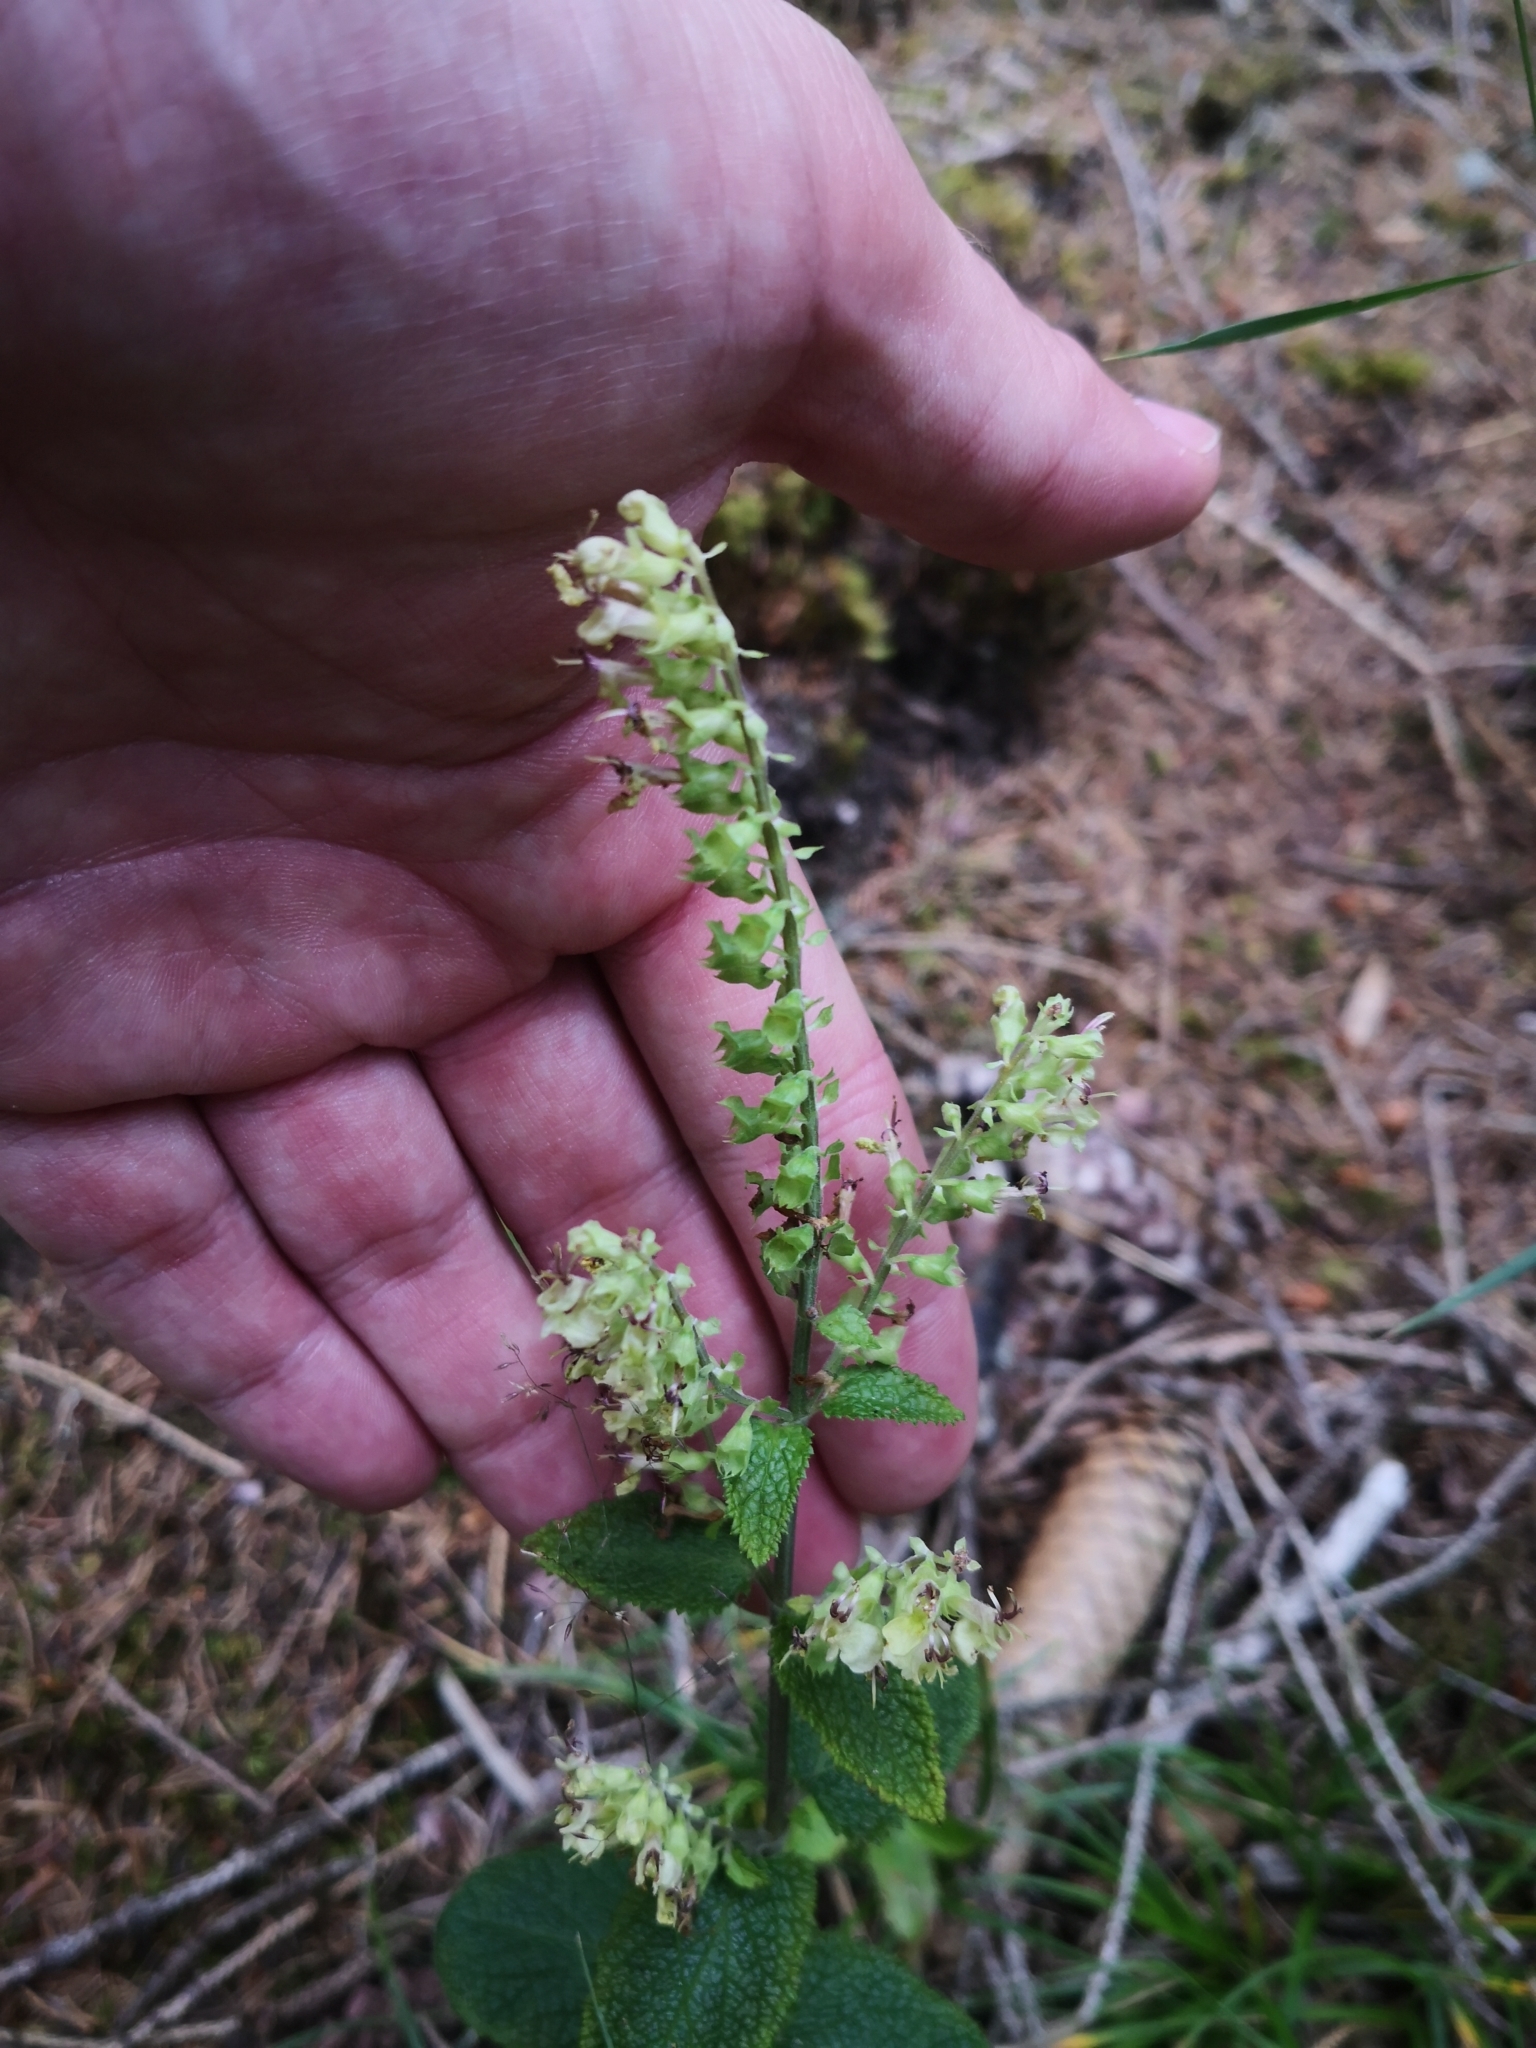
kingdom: Plantae
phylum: Tracheophyta
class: Magnoliopsida
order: Lamiales
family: Lamiaceae
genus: Teucrium
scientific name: Teucrium scorodonia
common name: Woodland germander
